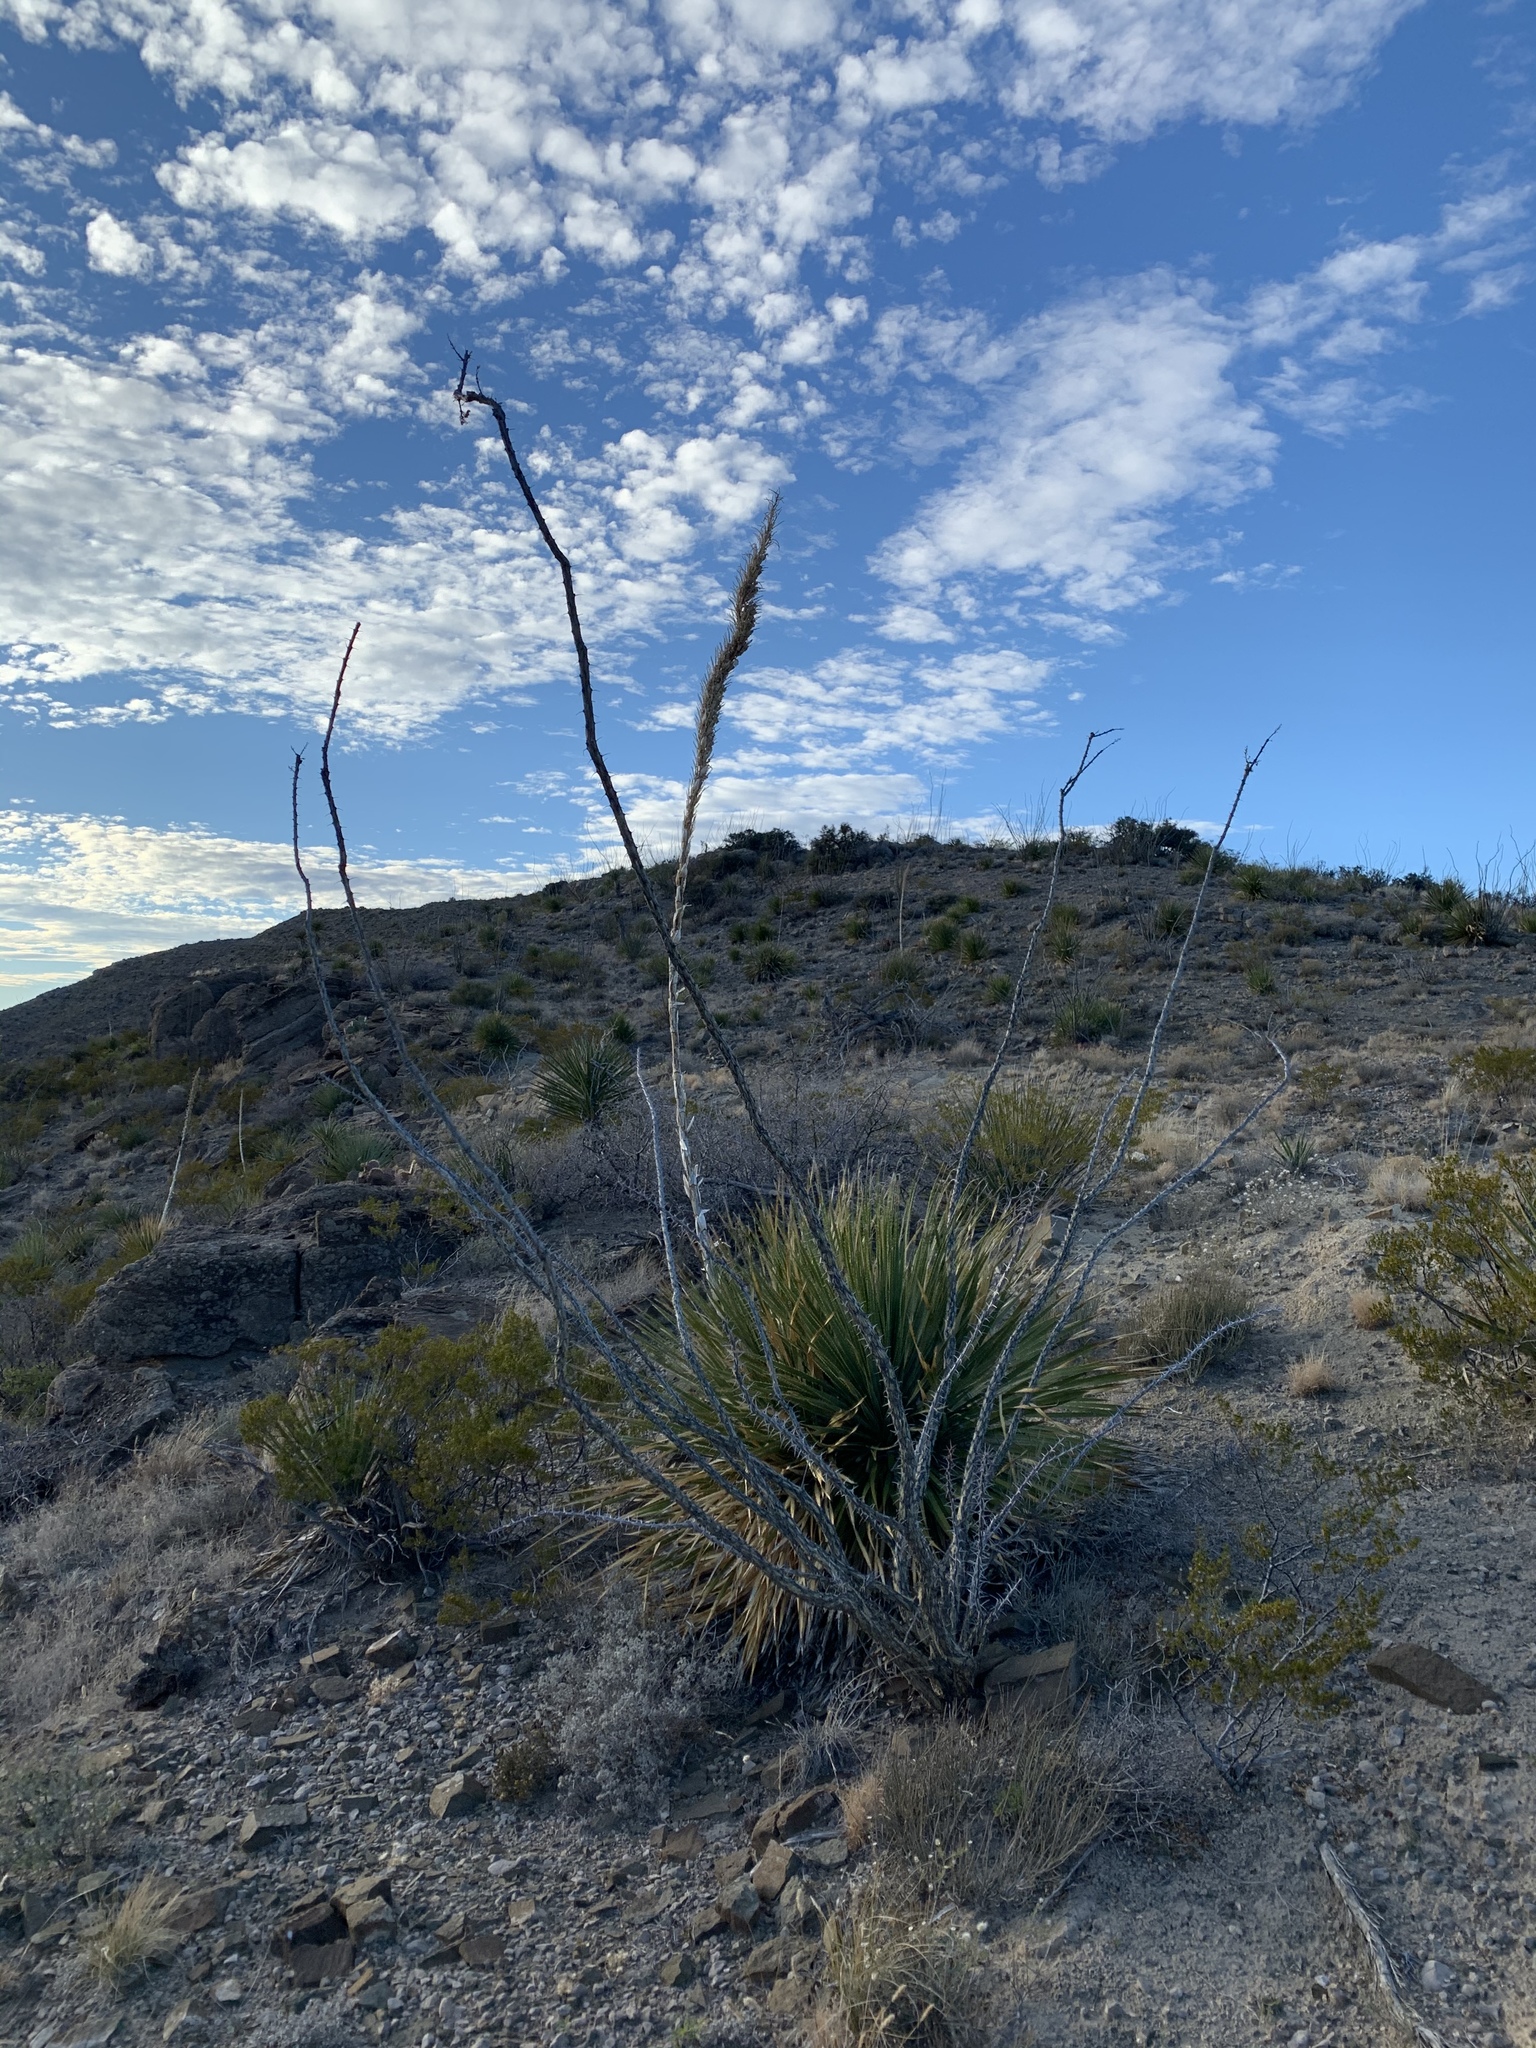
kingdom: Plantae
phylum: Tracheophyta
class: Magnoliopsida
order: Ericales
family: Fouquieriaceae
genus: Fouquieria
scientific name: Fouquieria splendens
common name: Vine-cactus
